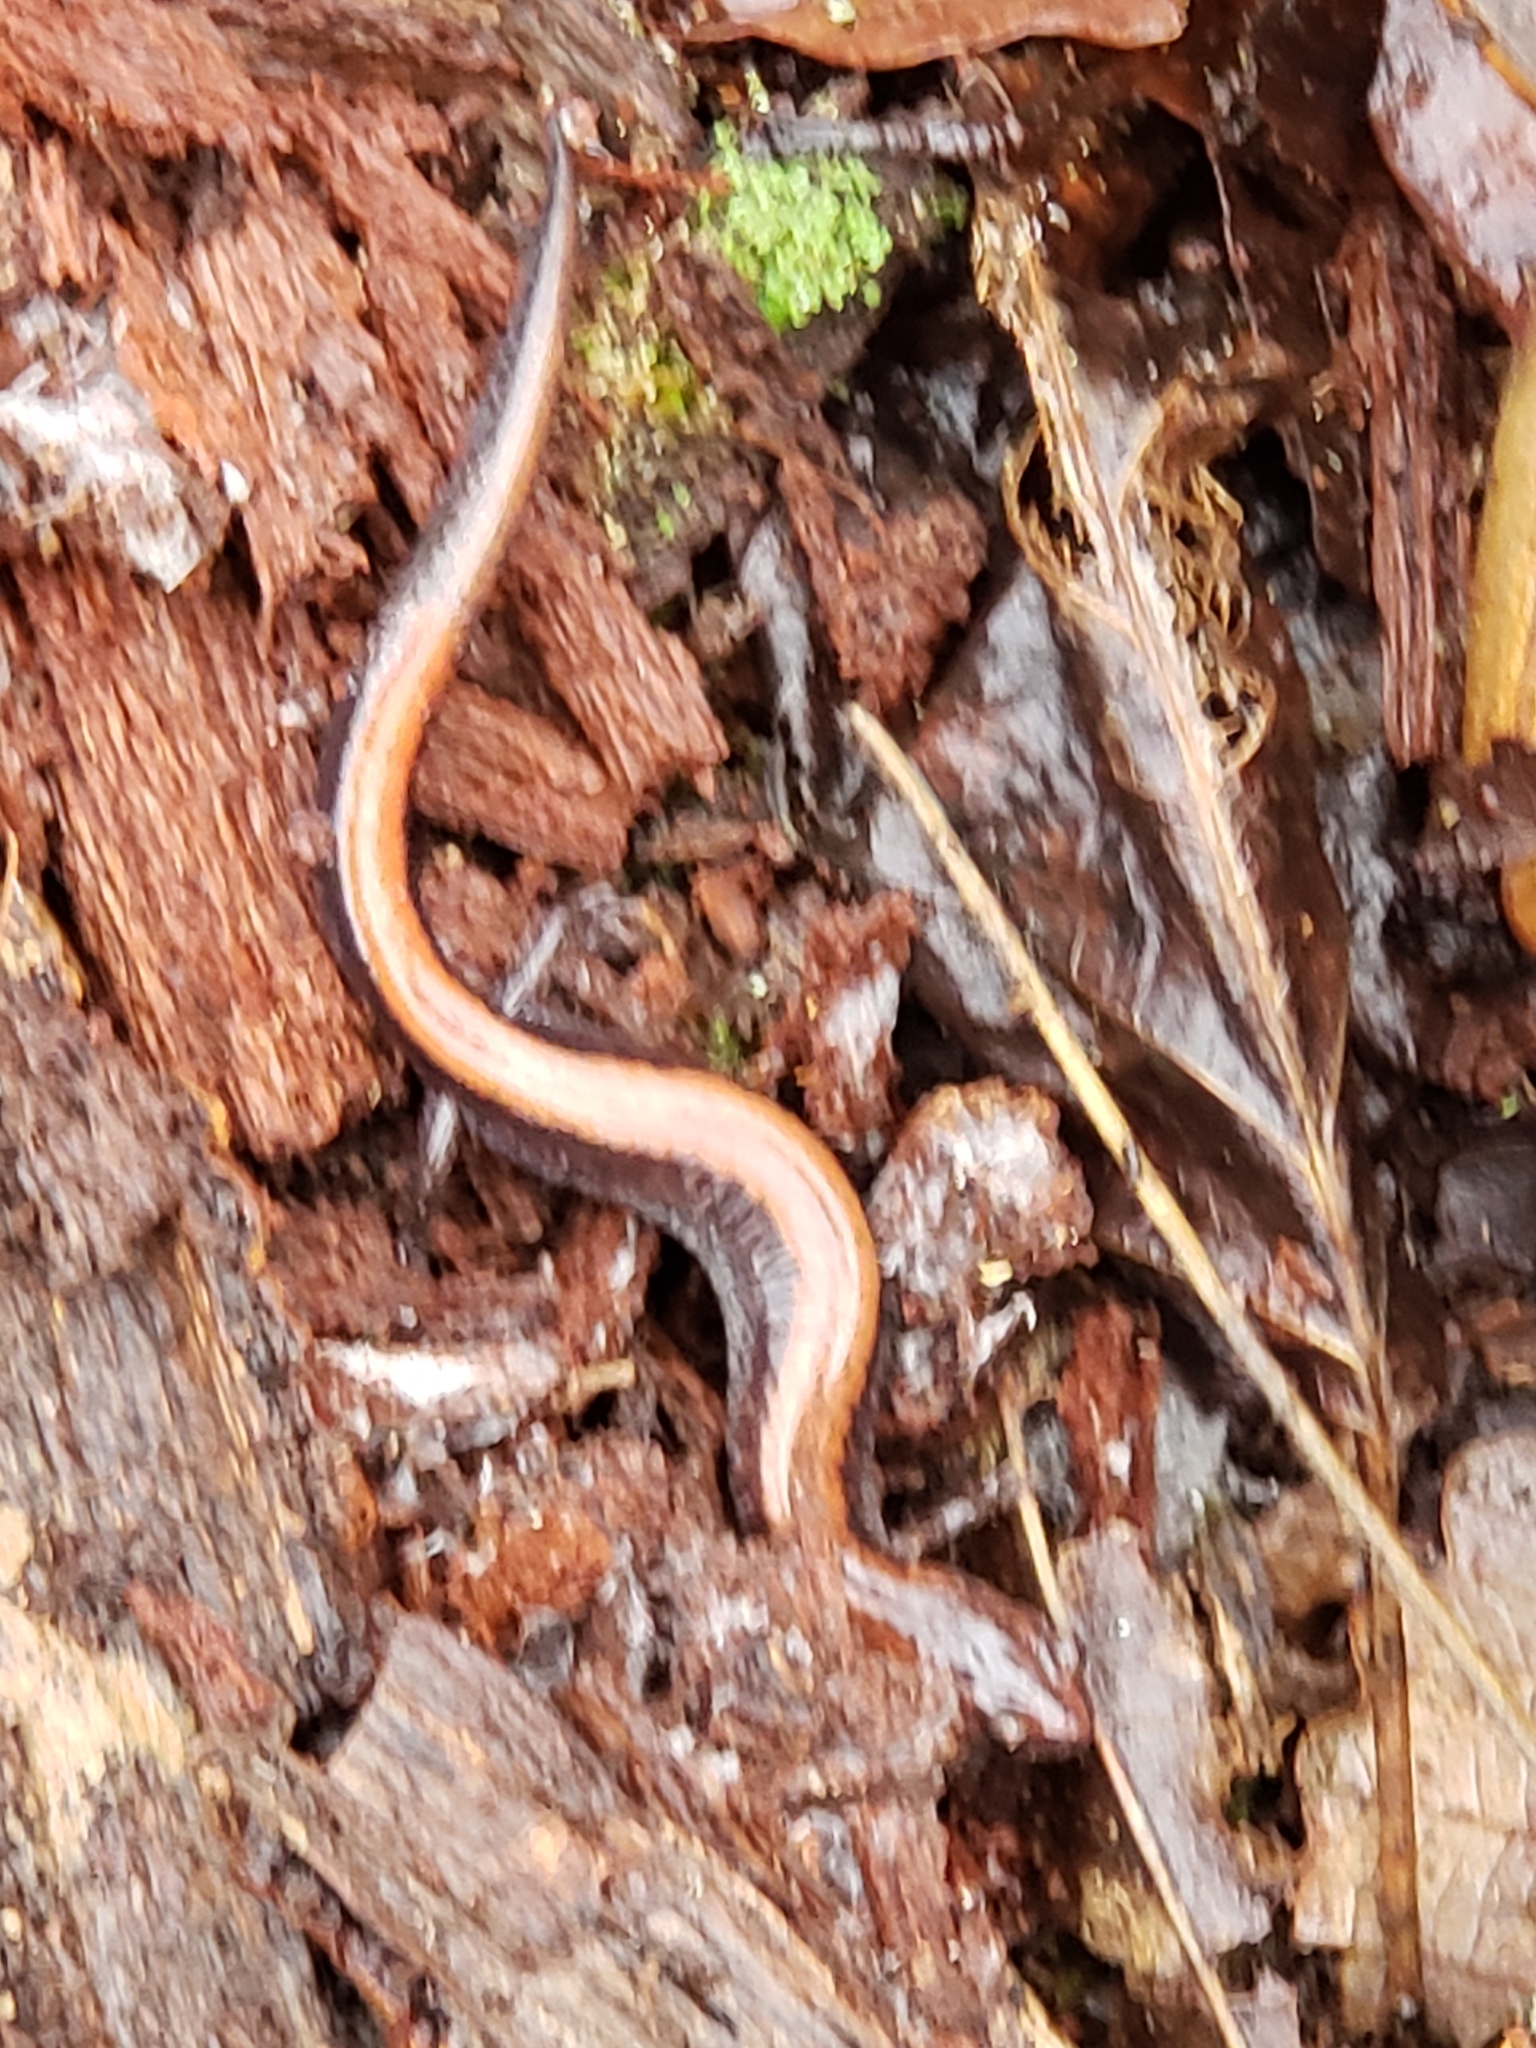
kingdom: Animalia
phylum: Chordata
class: Amphibia
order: Caudata
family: Plethodontidae
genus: Plethodon
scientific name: Plethodon cinereus
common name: Redback salamander
